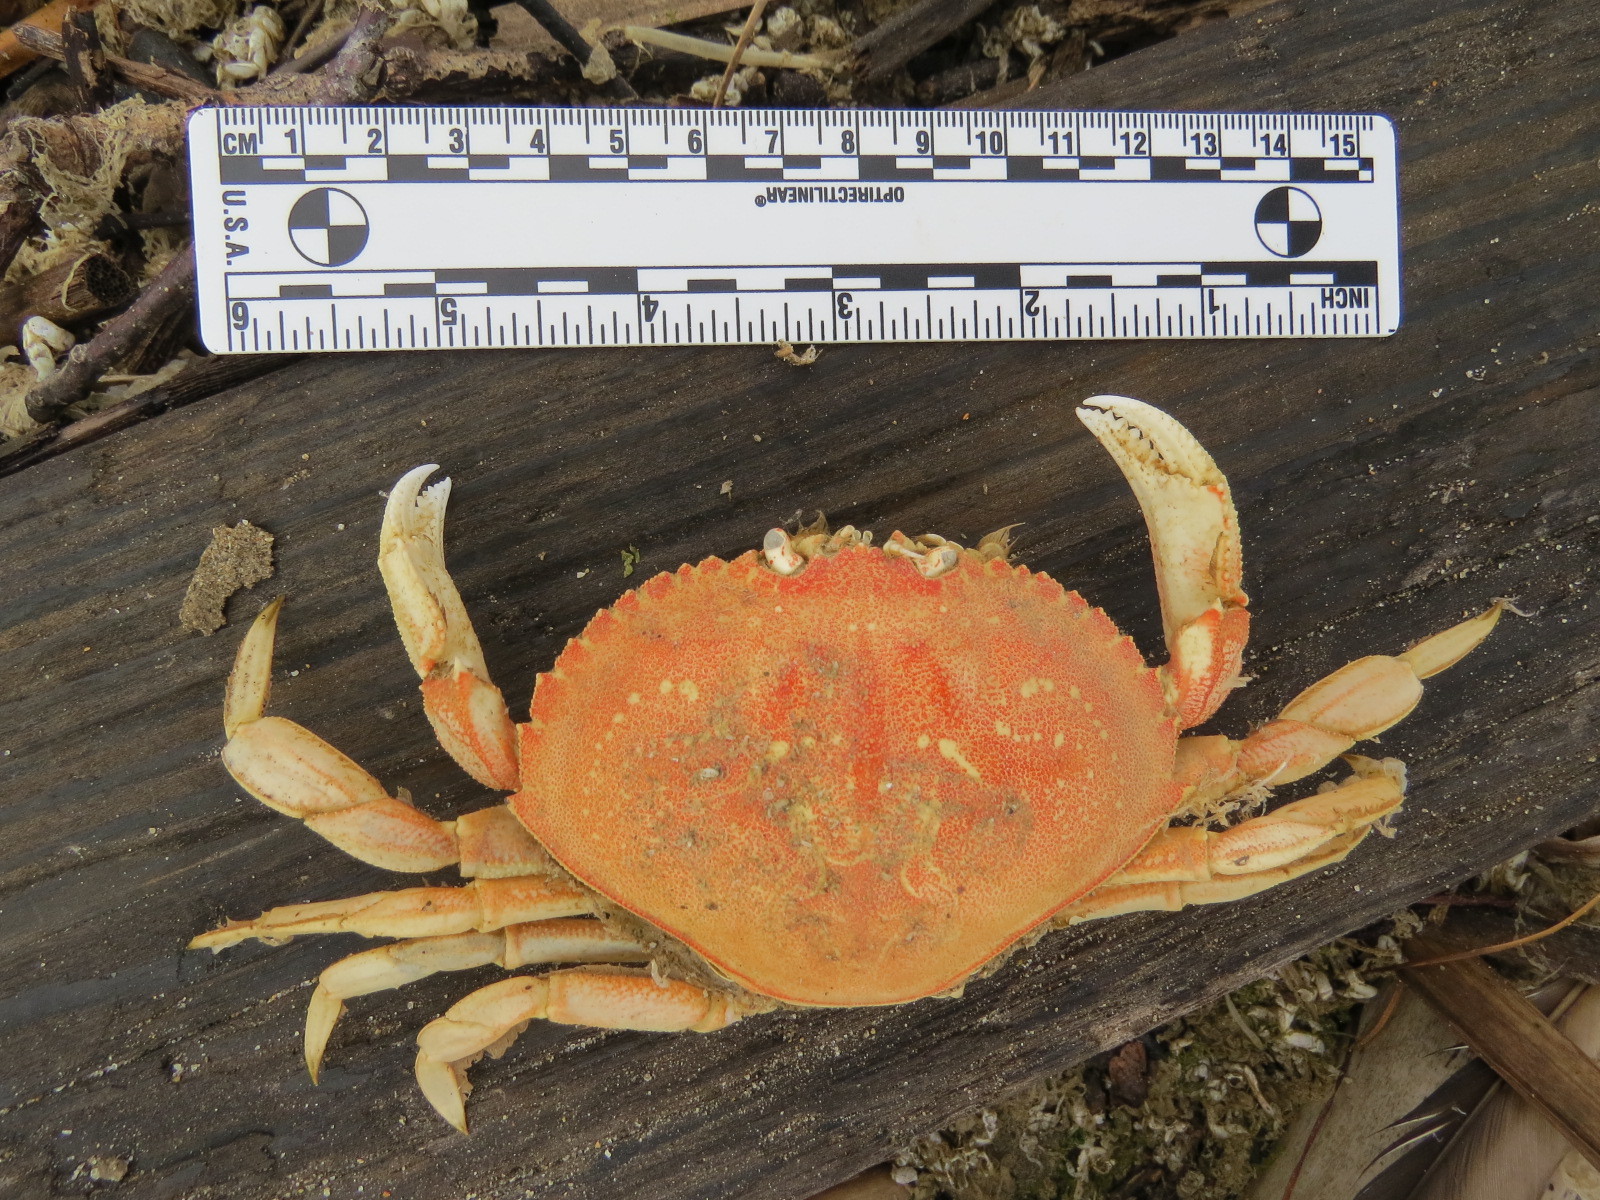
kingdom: Animalia
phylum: Arthropoda
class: Malacostraca
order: Decapoda
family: Cancridae
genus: Metacarcinus
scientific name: Metacarcinus magister
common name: Californian crab
